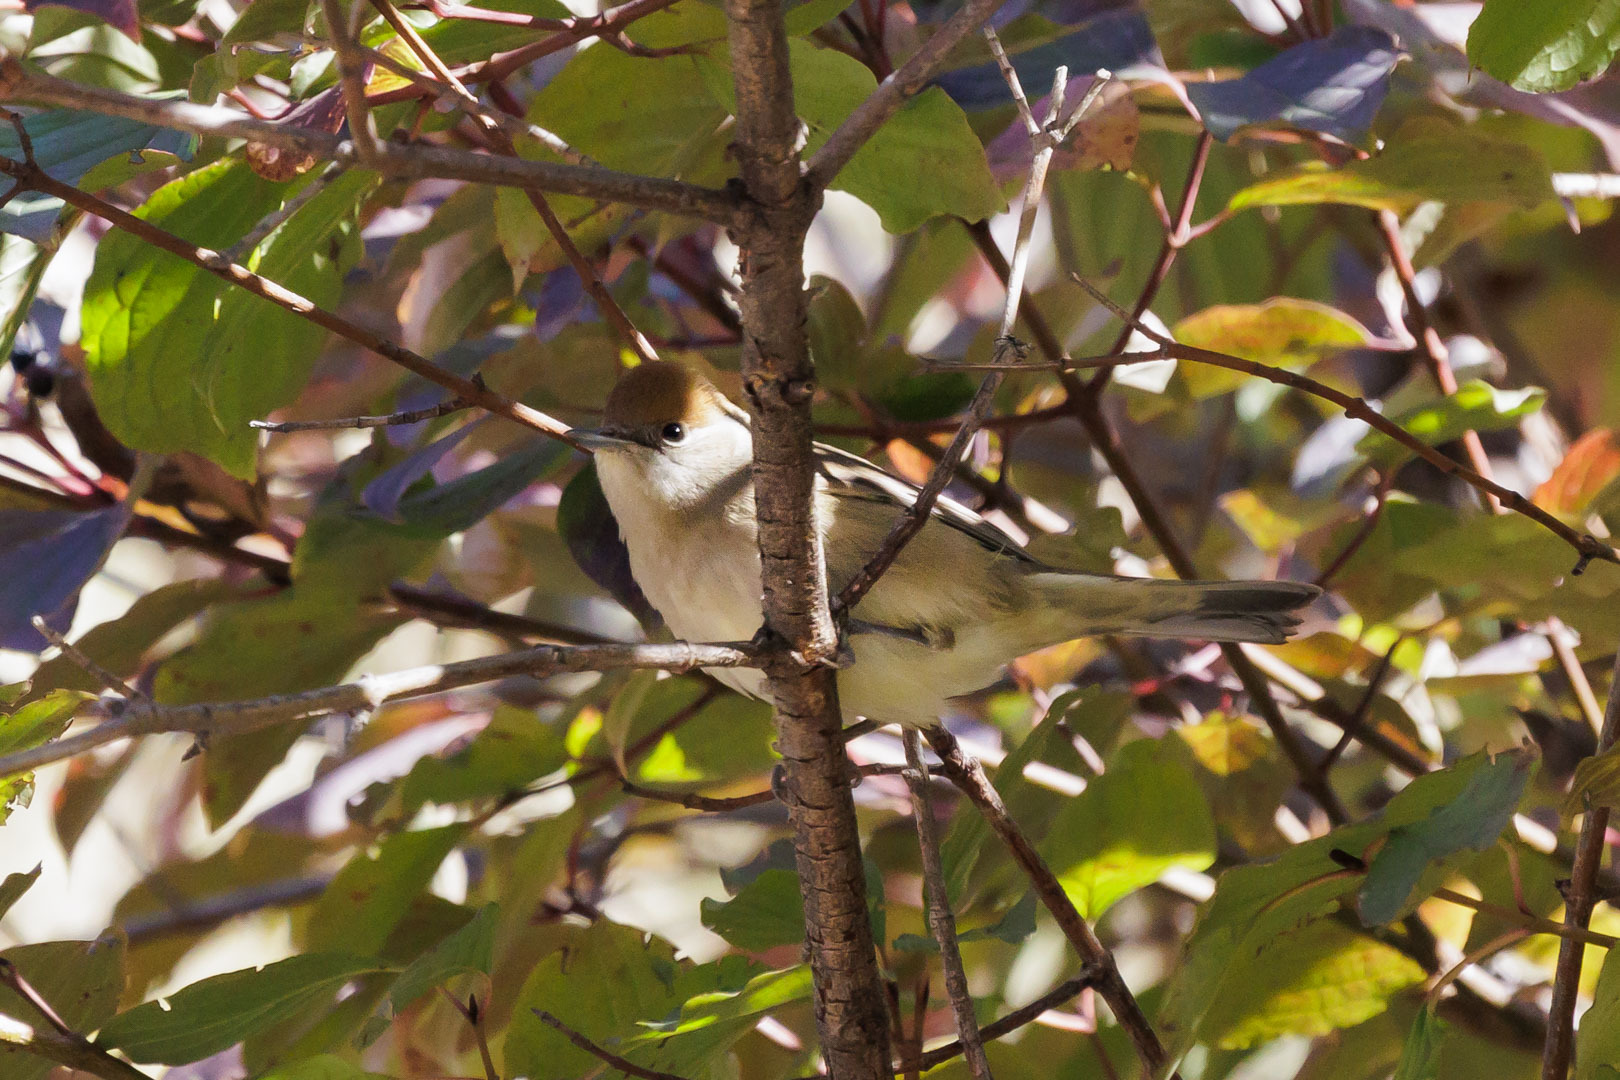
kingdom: Animalia
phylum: Chordata
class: Aves
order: Passeriformes
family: Sylviidae
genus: Sylvia
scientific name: Sylvia atricapilla
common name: Eurasian blackcap
